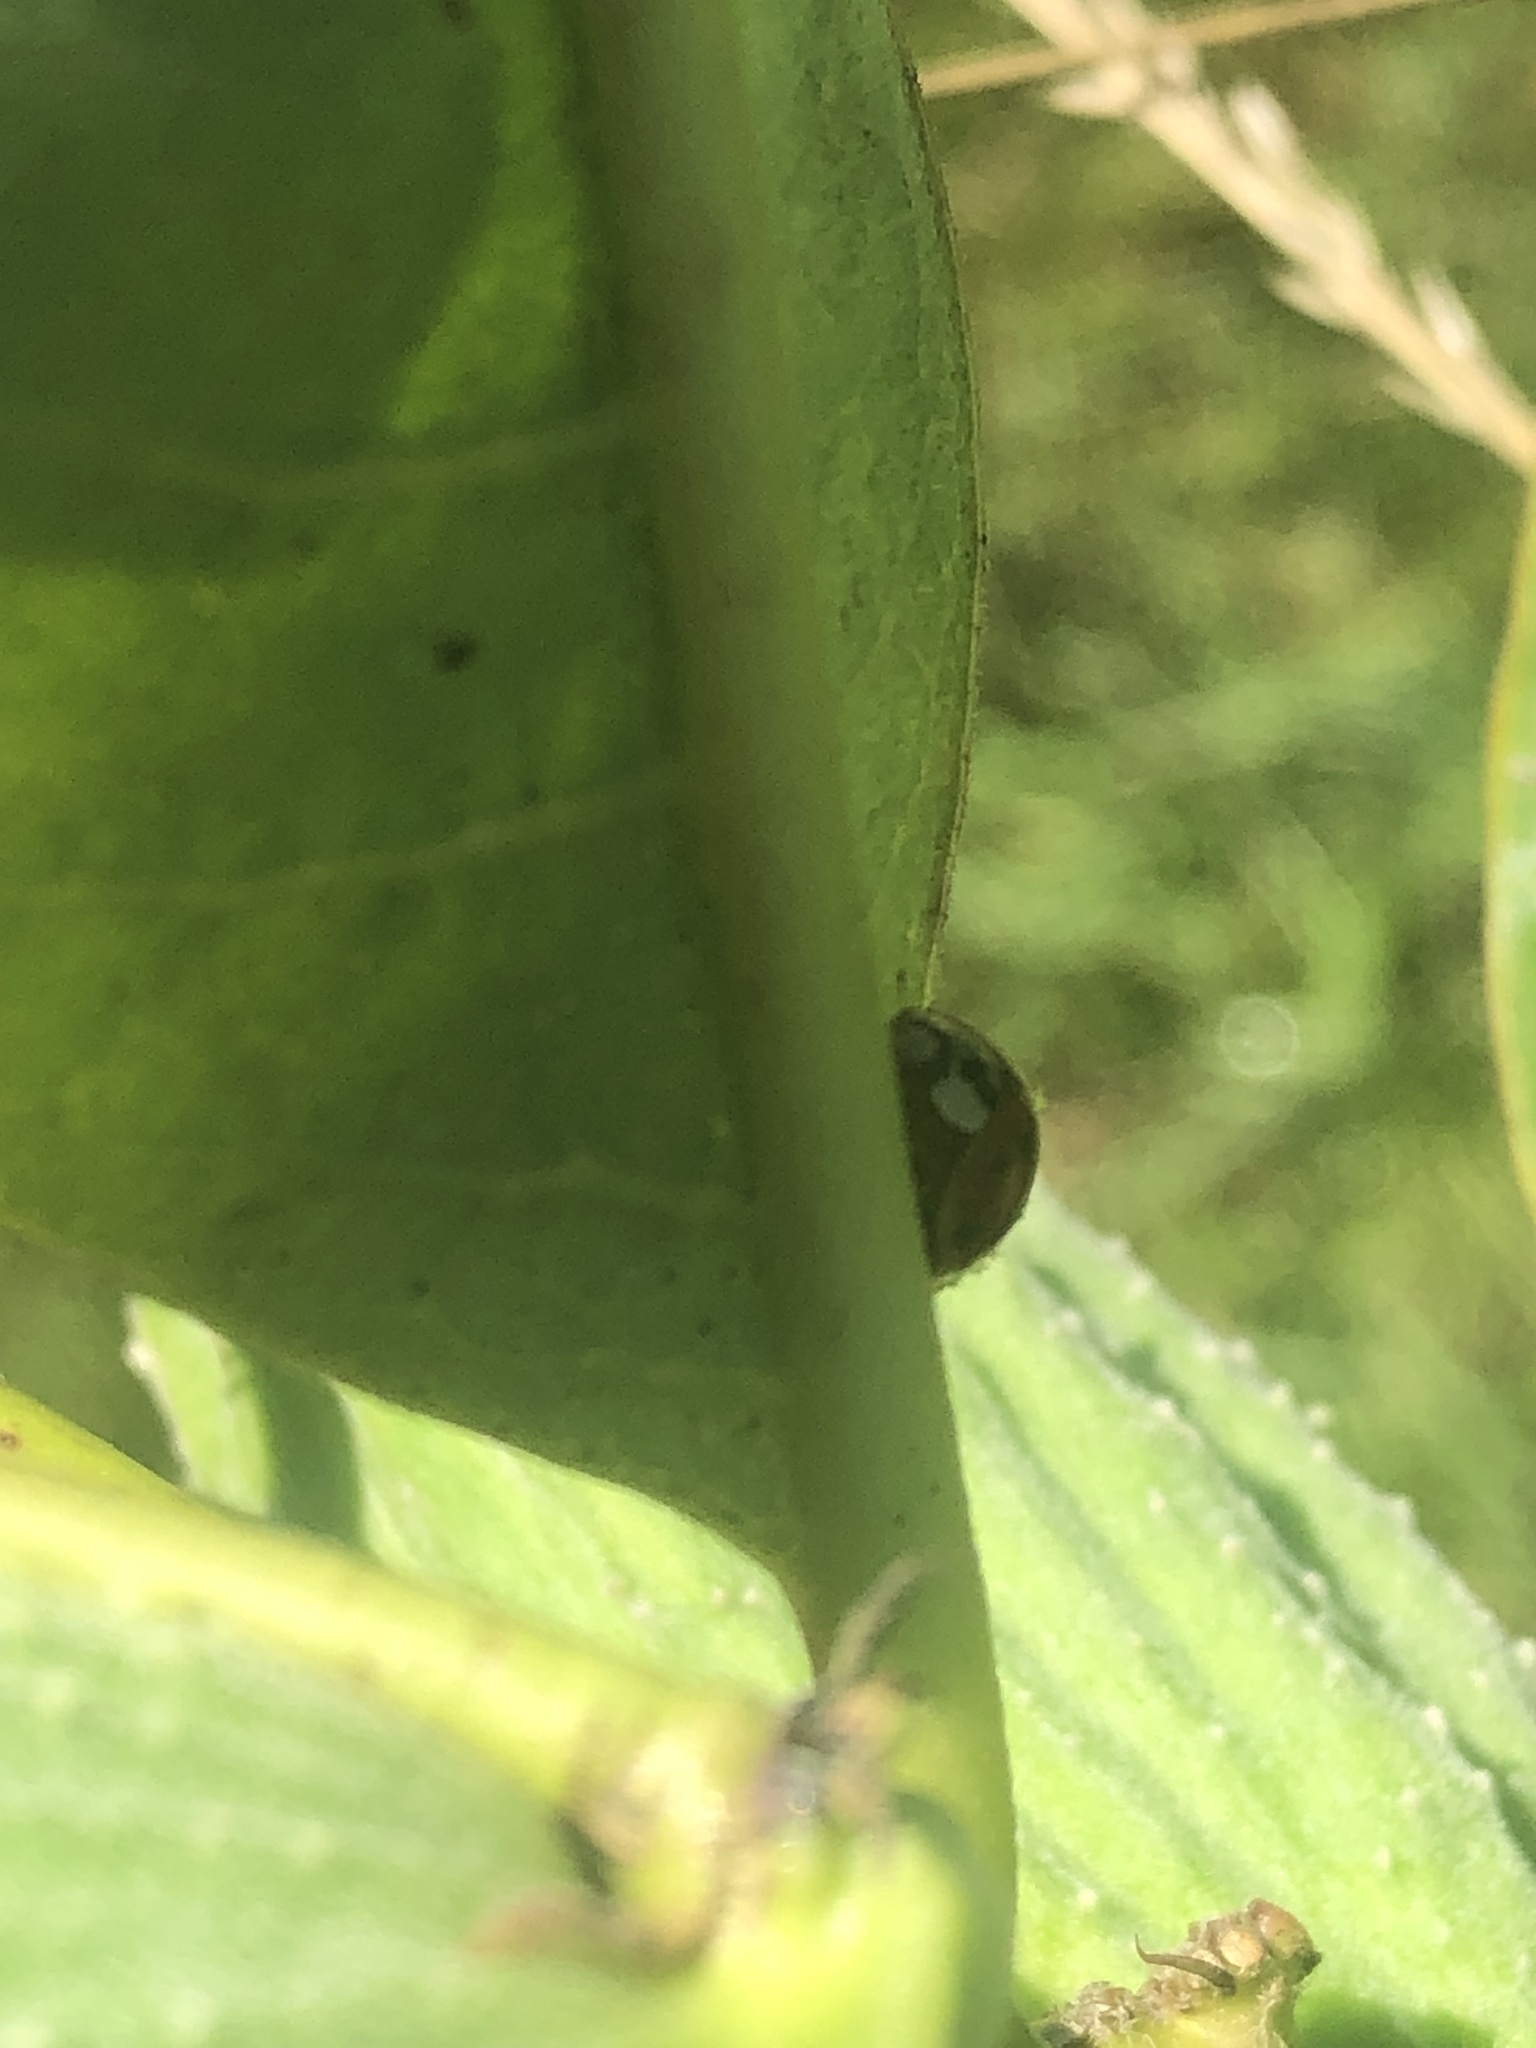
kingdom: Animalia
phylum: Arthropoda
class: Insecta
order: Coleoptera
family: Coccinellidae
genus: Harmonia
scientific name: Harmonia axyridis
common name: Harlequin ladybird
